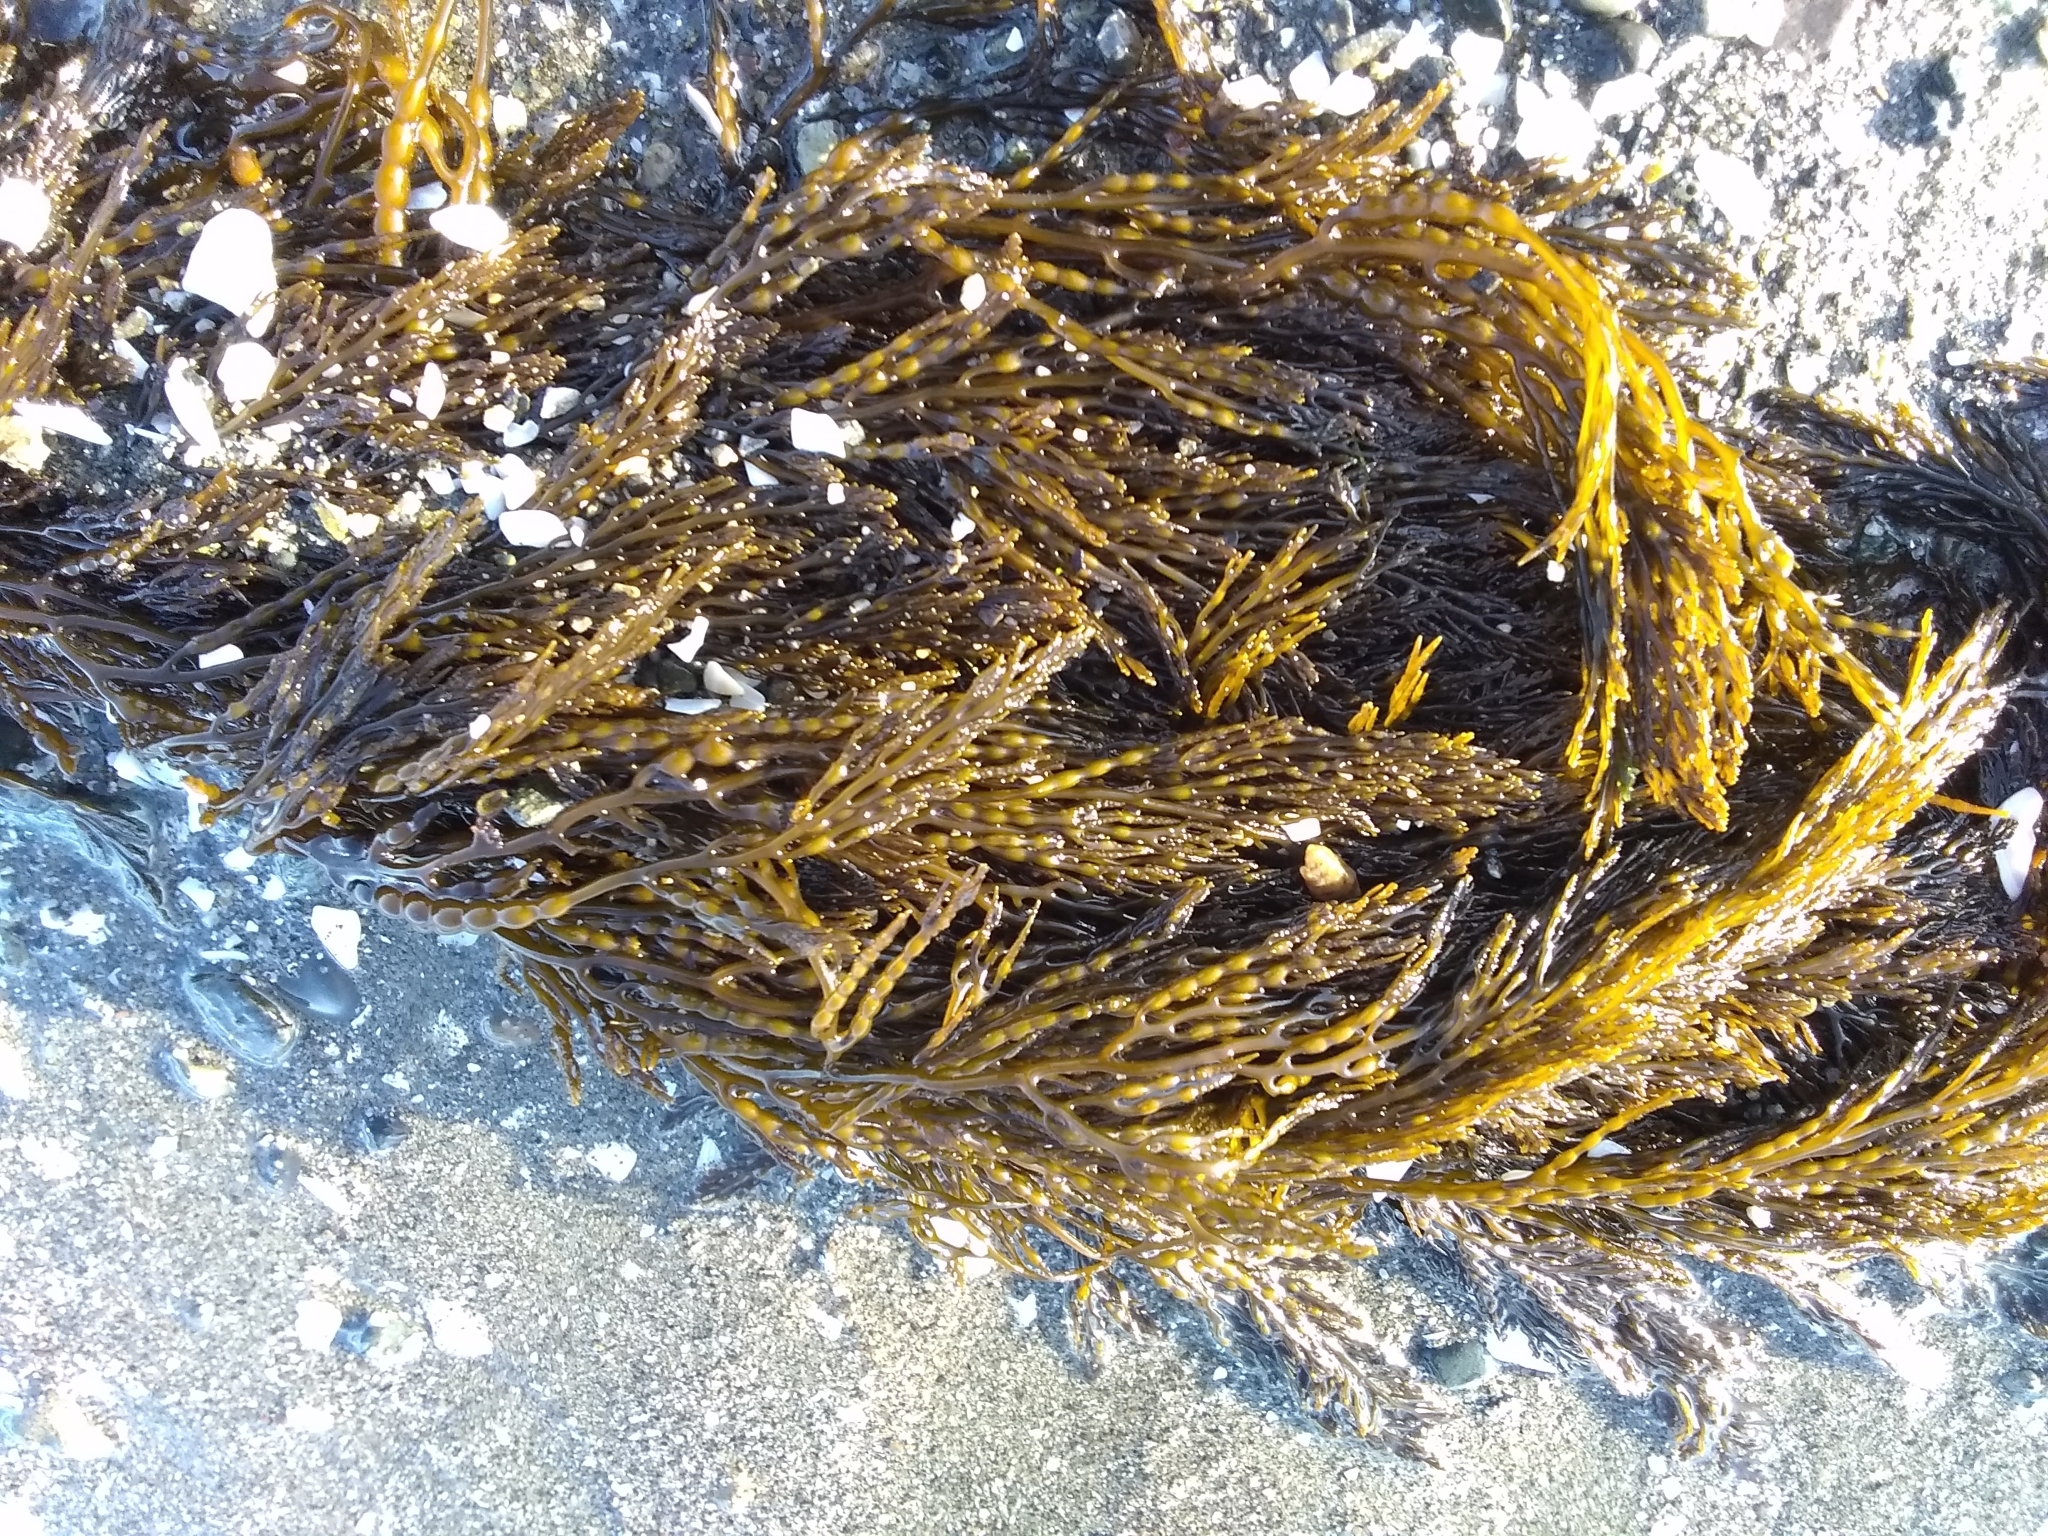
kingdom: Chromista
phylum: Ochrophyta
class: Phaeophyceae
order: Fucales
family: Sargassaceae
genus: Stephanocystis
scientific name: Stephanocystis
